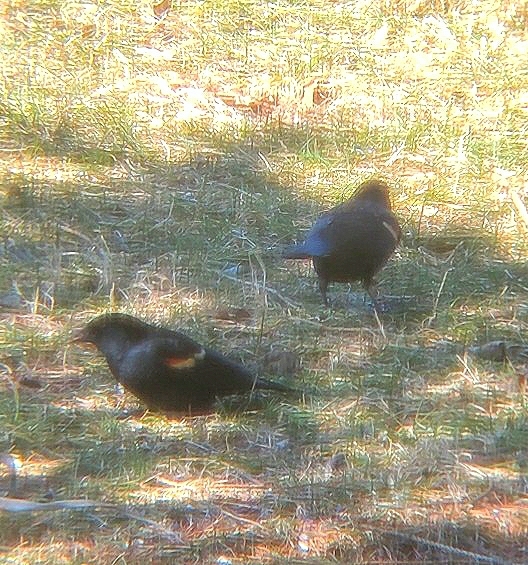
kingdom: Animalia
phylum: Chordata
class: Aves
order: Passeriformes
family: Icteridae
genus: Agelaius
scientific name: Agelaius phoeniceus
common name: Red-winged blackbird
